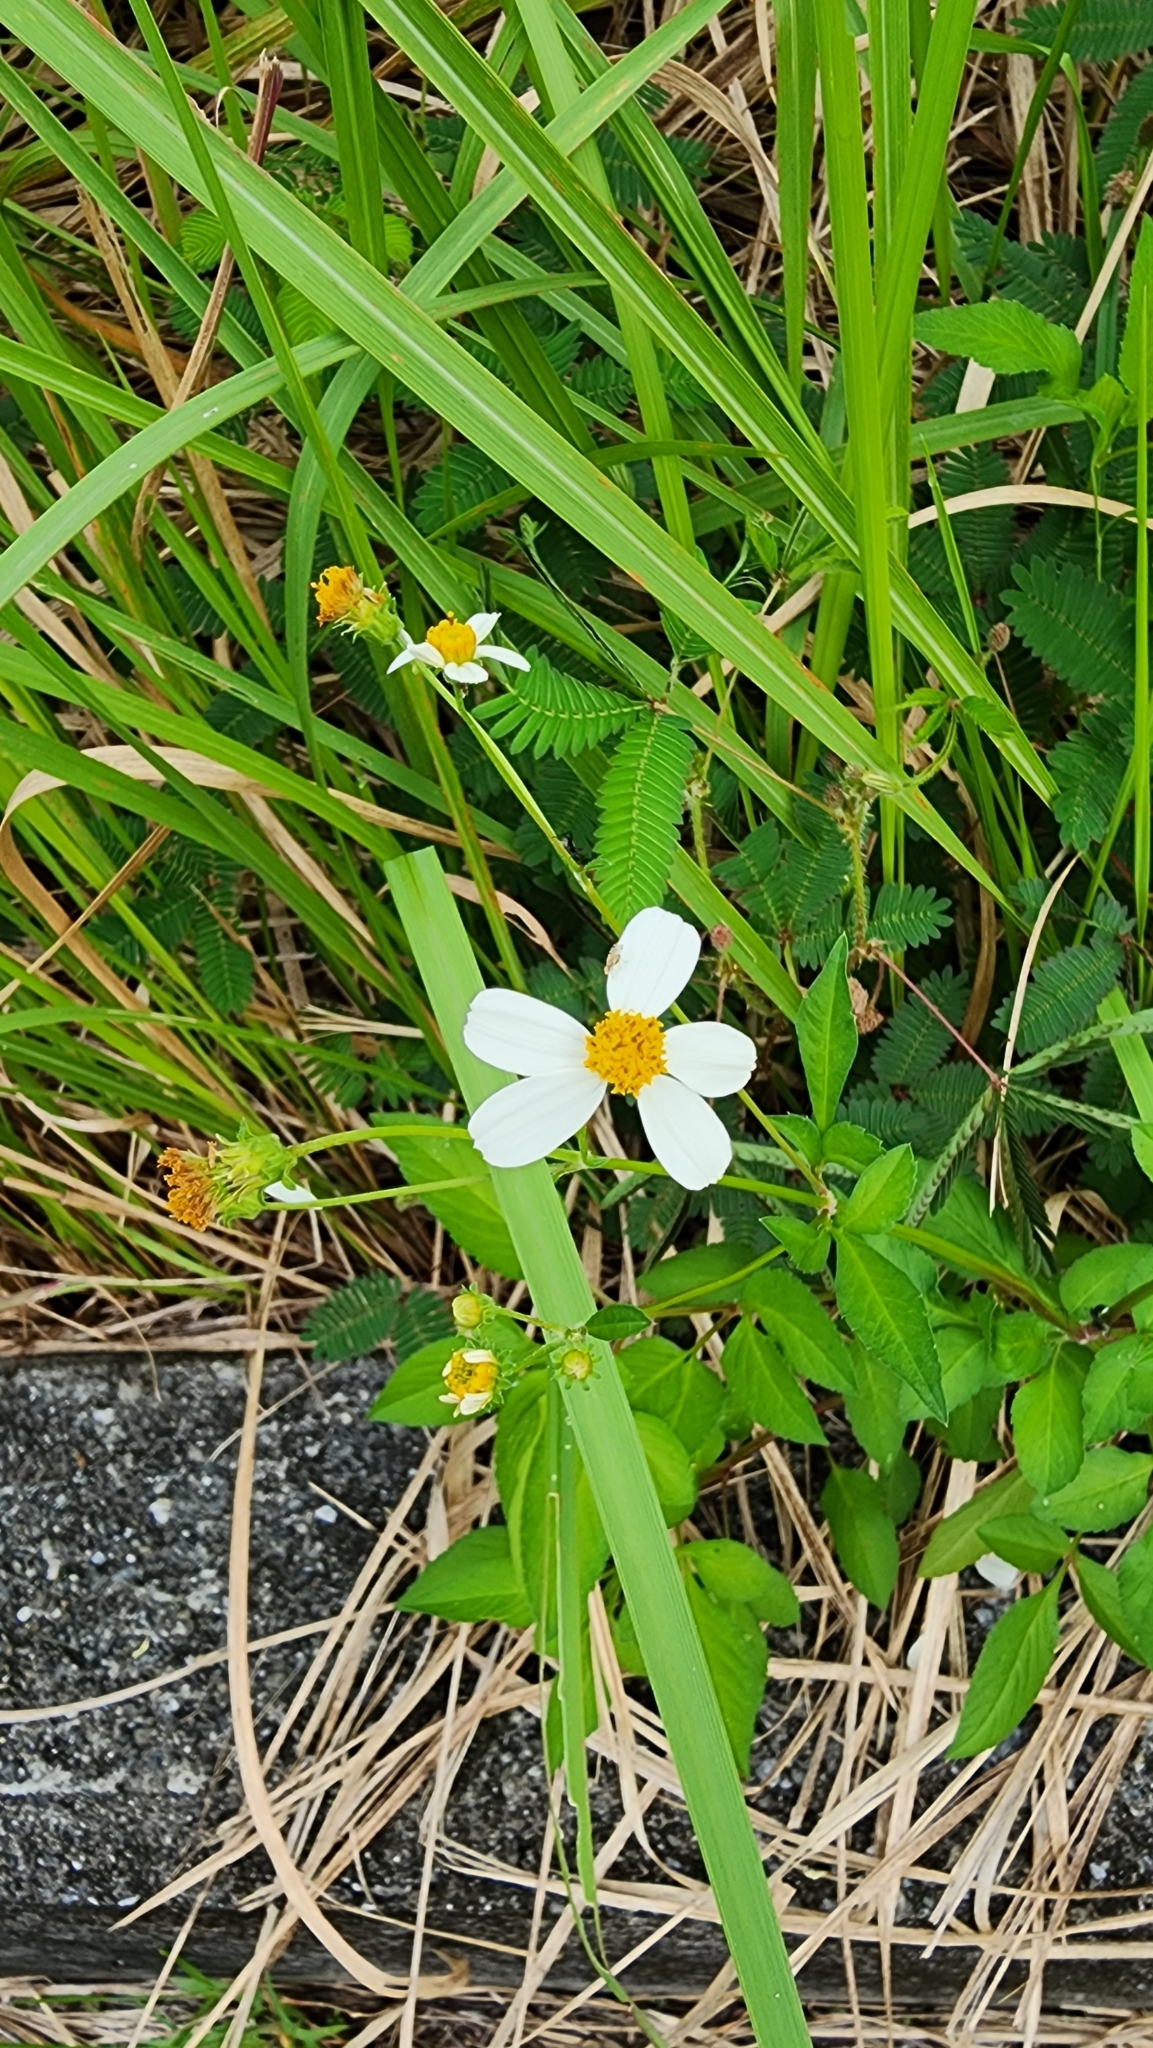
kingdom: Plantae
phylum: Tracheophyta
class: Magnoliopsida
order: Asterales
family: Asteraceae
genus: Bidens
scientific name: Bidens alba
